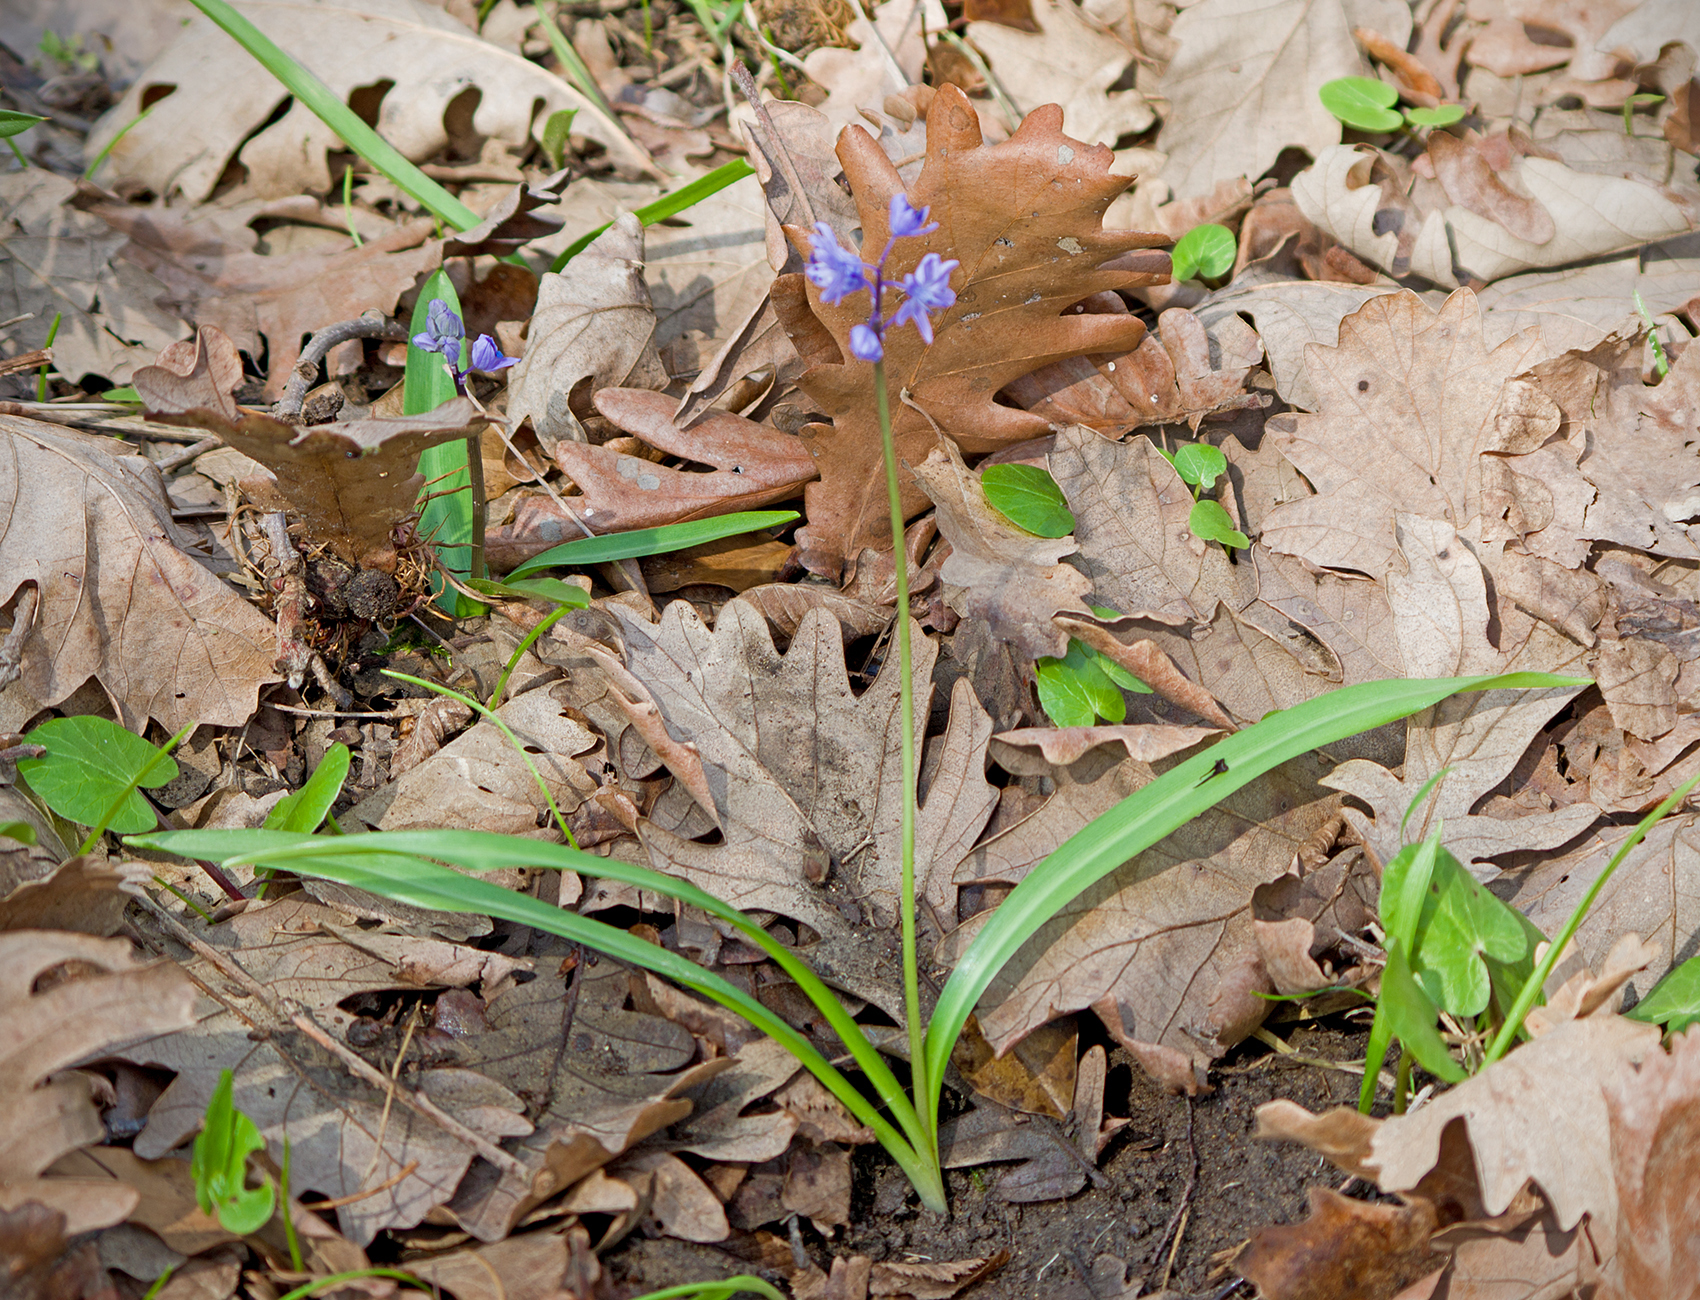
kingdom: Plantae
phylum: Tracheophyta
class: Liliopsida
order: Asparagales
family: Asparagaceae
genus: Scilla
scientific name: Scilla bithynica
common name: Turkish squill
